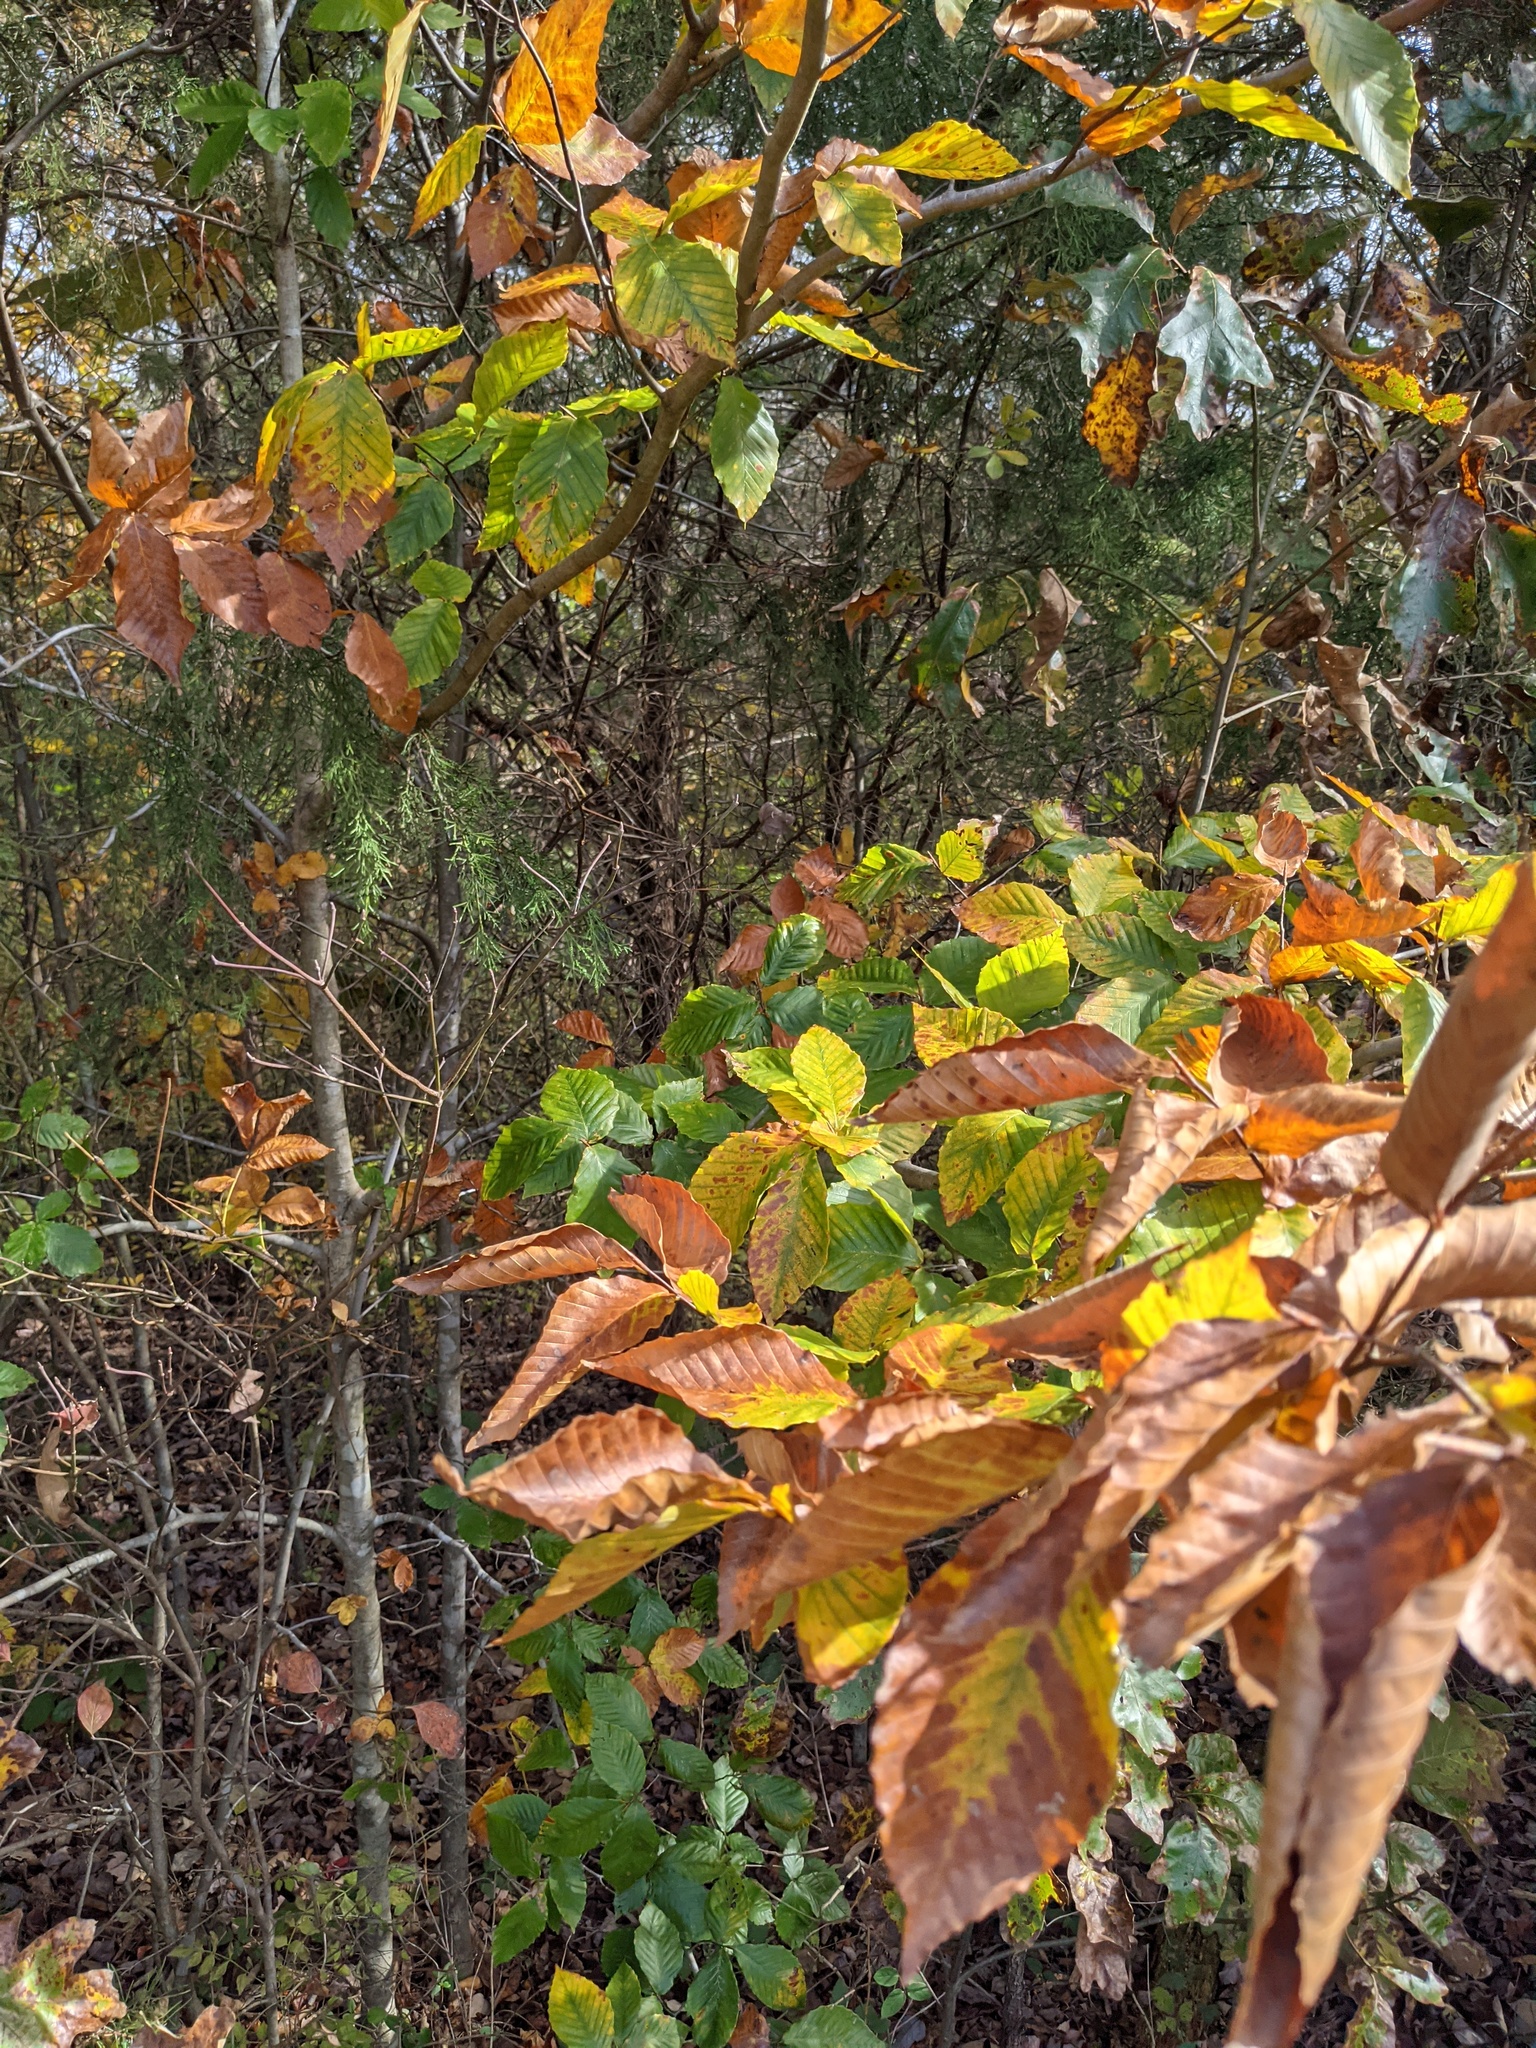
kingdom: Plantae
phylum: Tracheophyta
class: Magnoliopsida
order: Fagales
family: Fagaceae
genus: Fagus
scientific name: Fagus grandifolia
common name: American beech
